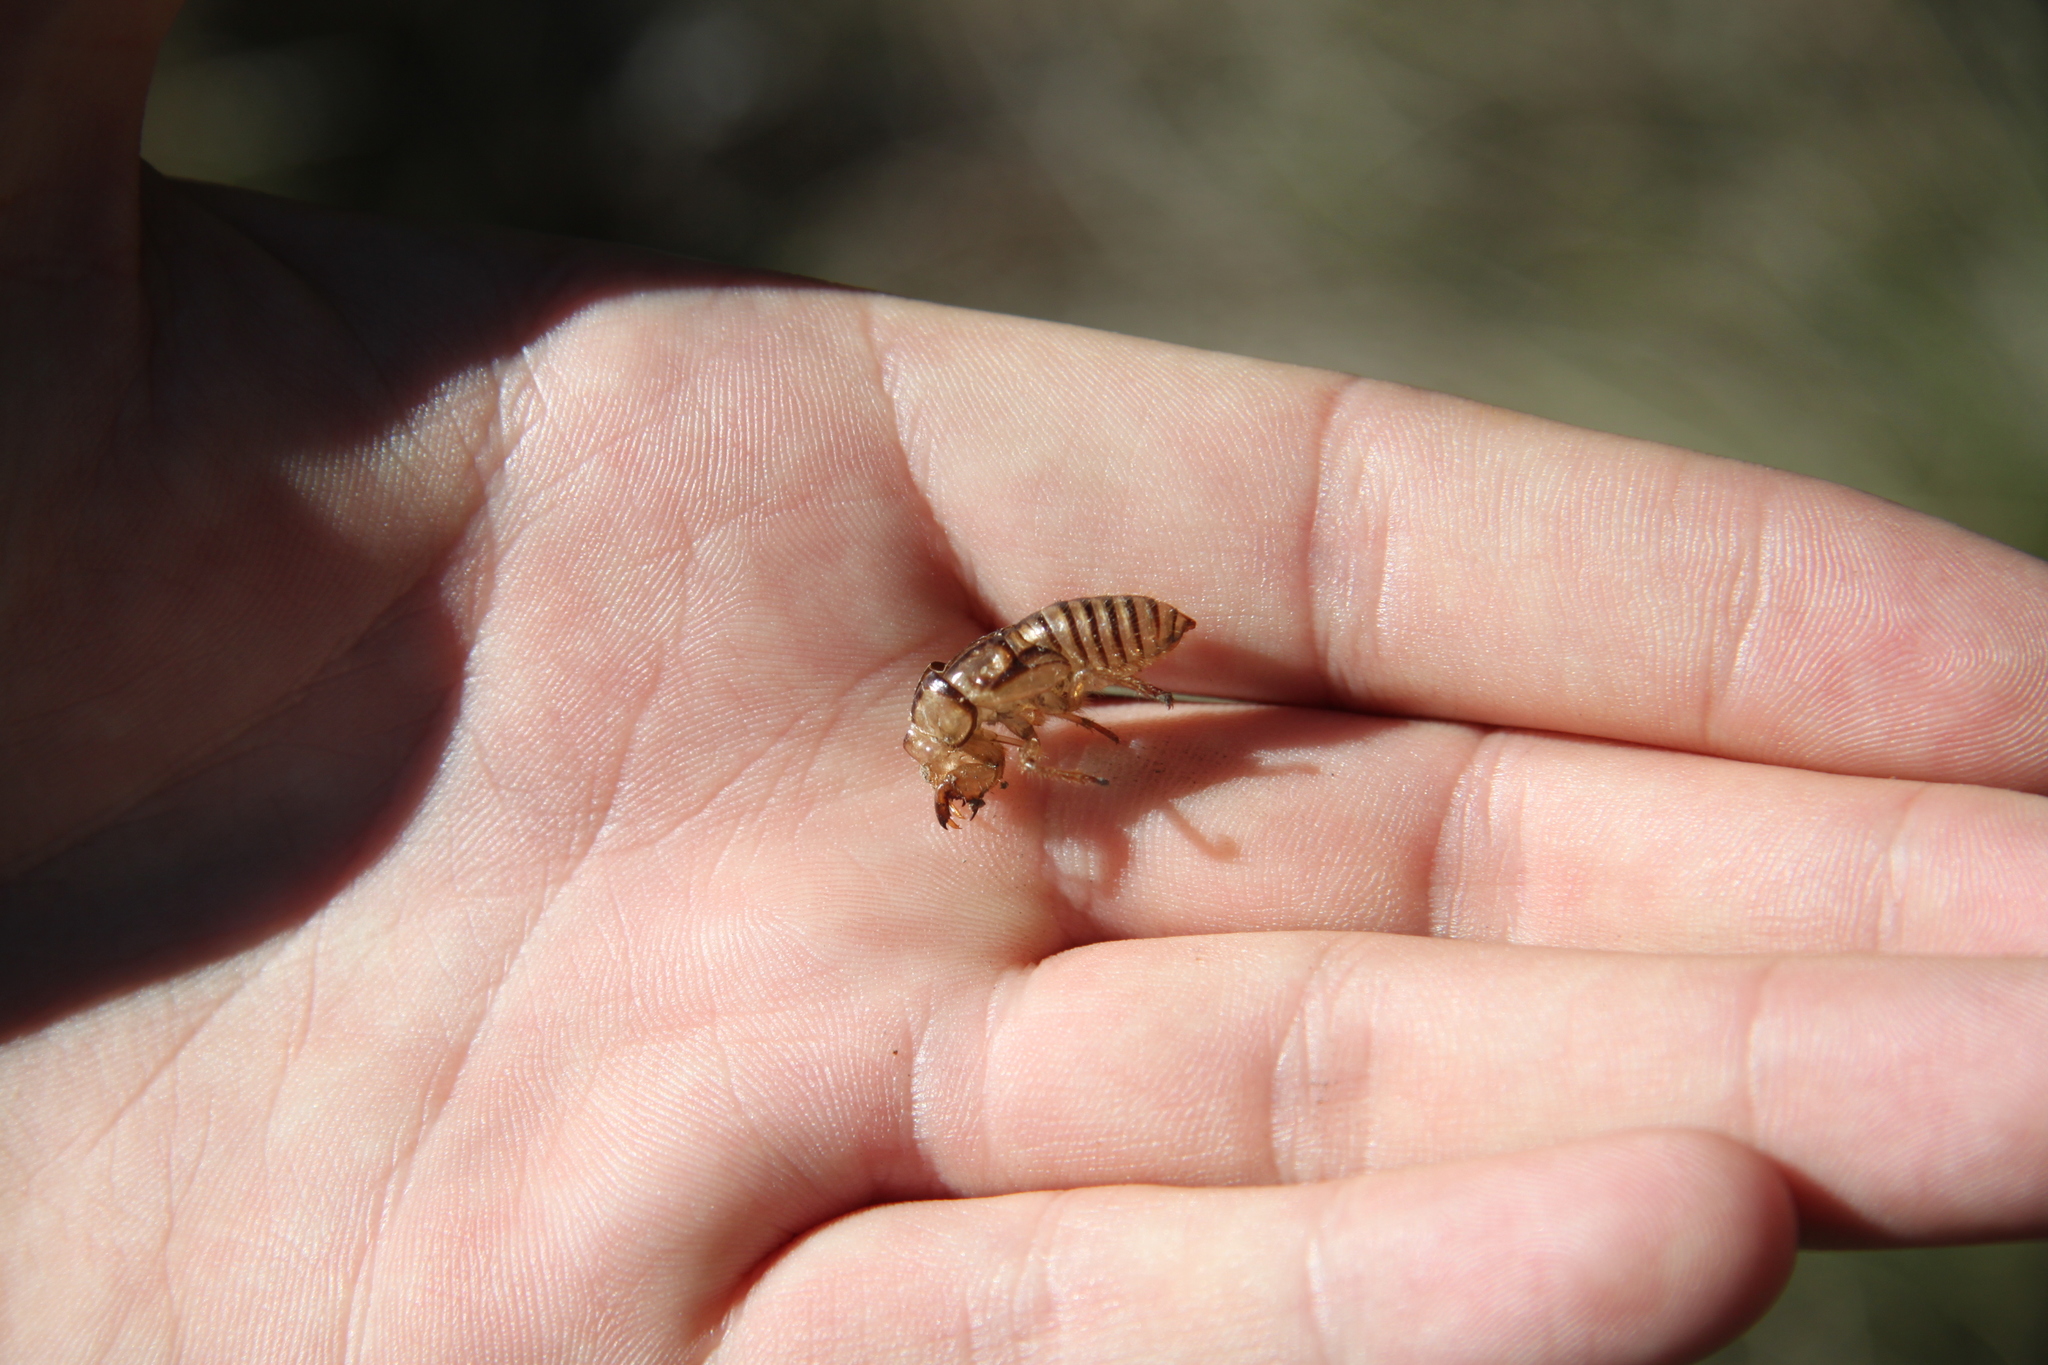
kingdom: Animalia
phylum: Arthropoda
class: Insecta
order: Hemiptera
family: Cicadidae
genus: Platypedia
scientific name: Platypedia areolata
